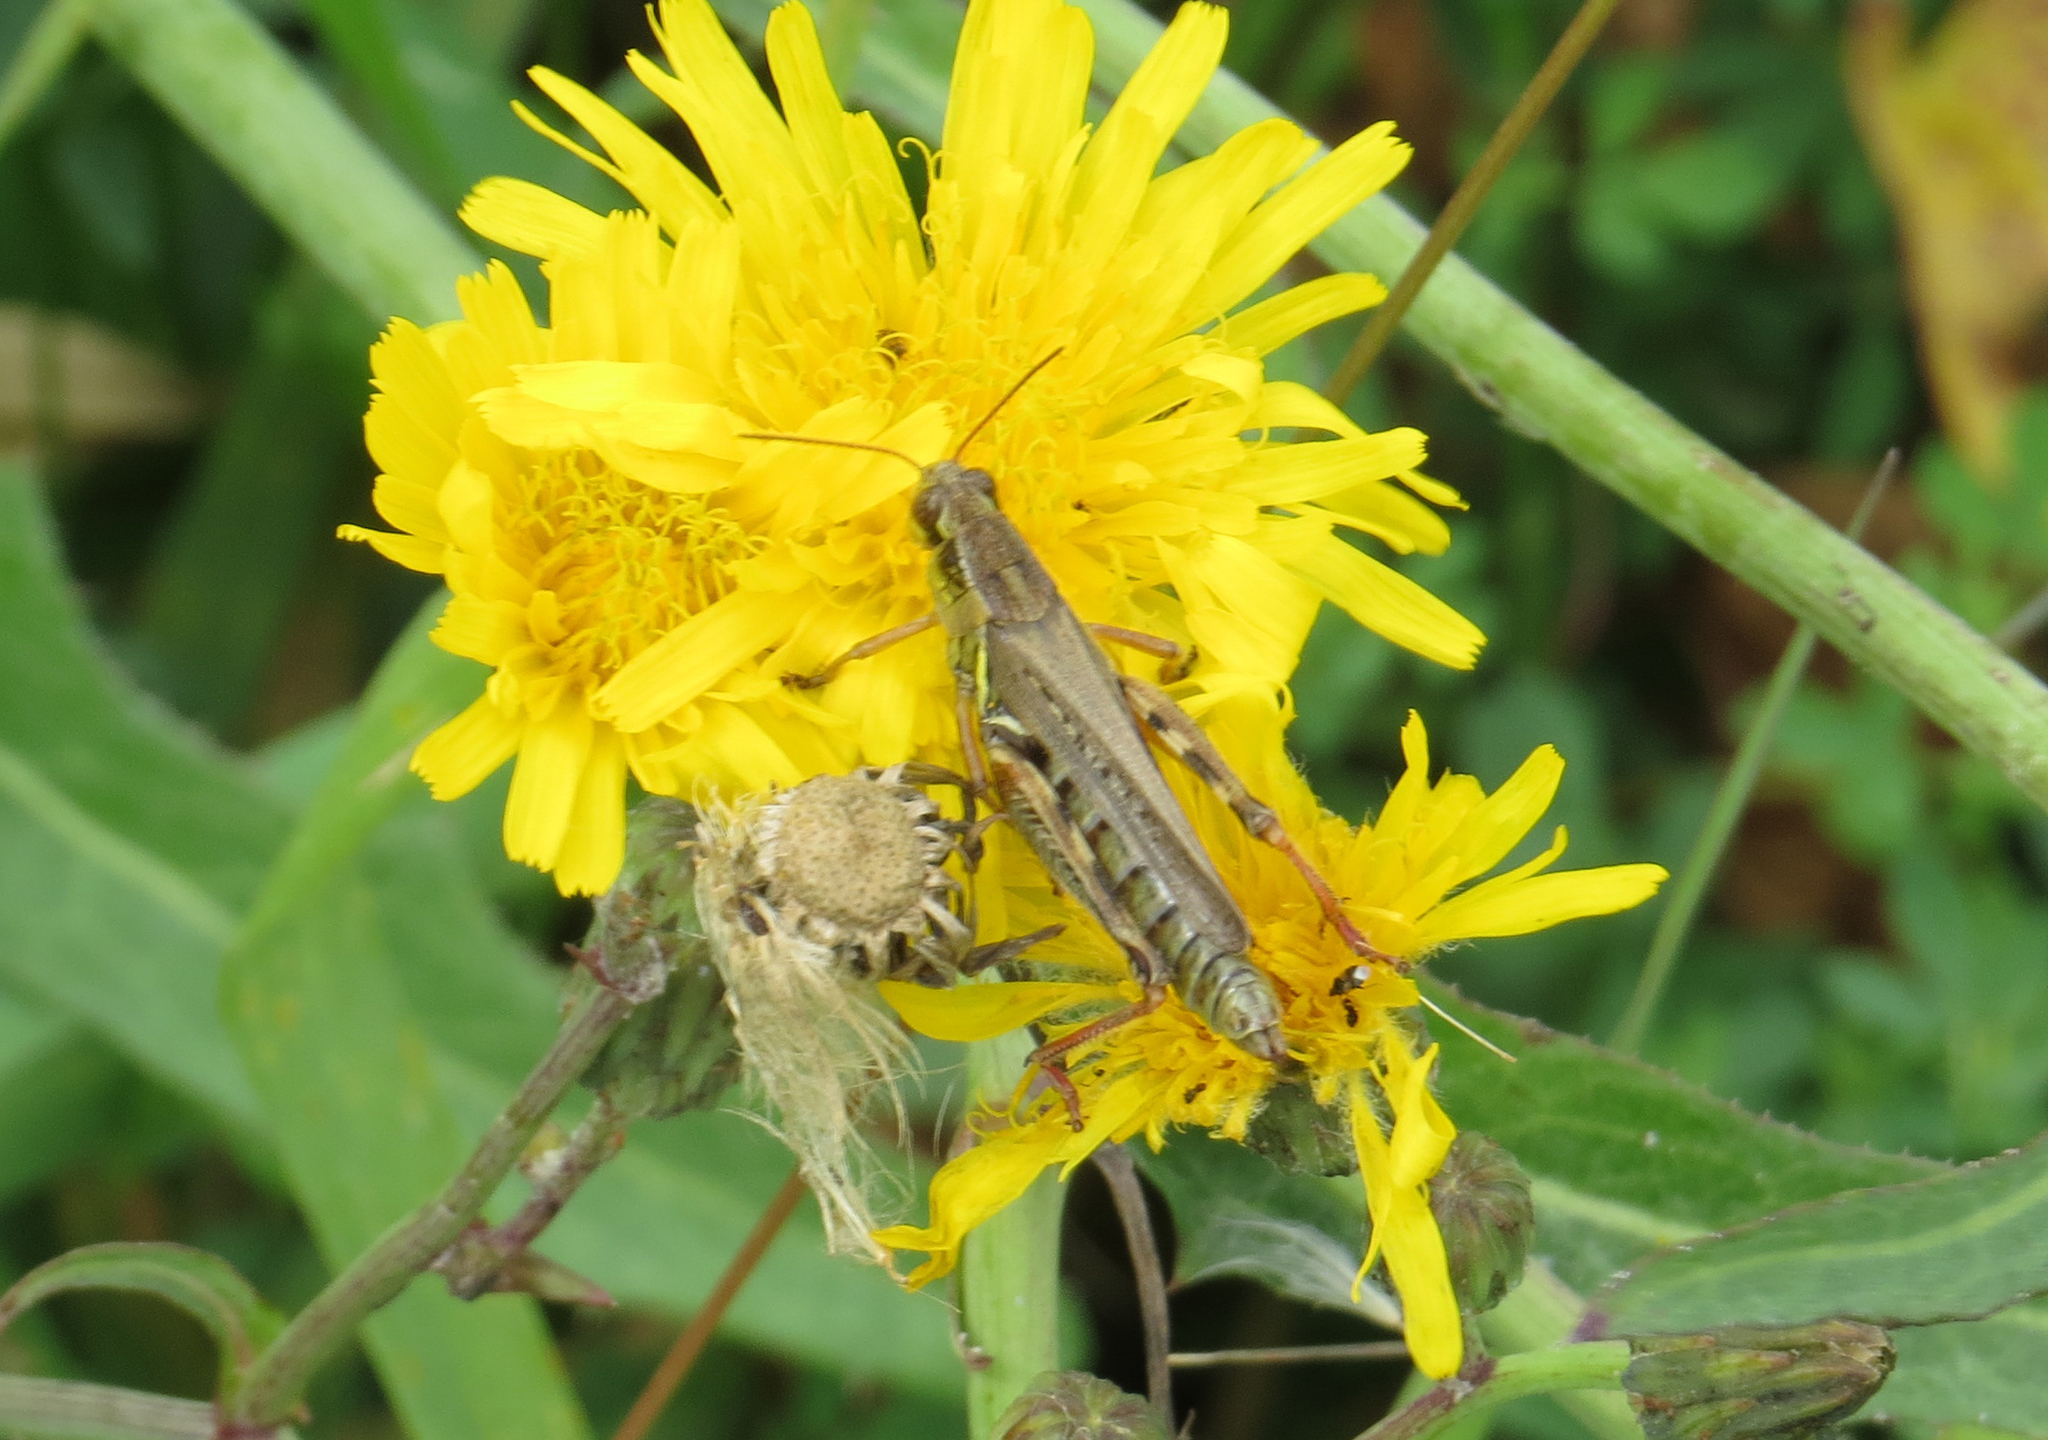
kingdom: Animalia
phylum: Arthropoda
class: Insecta
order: Orthoptera
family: Acrididae
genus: Melanoplus
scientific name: Melanoplus femurrubrum
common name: Red-legged grasshopper
